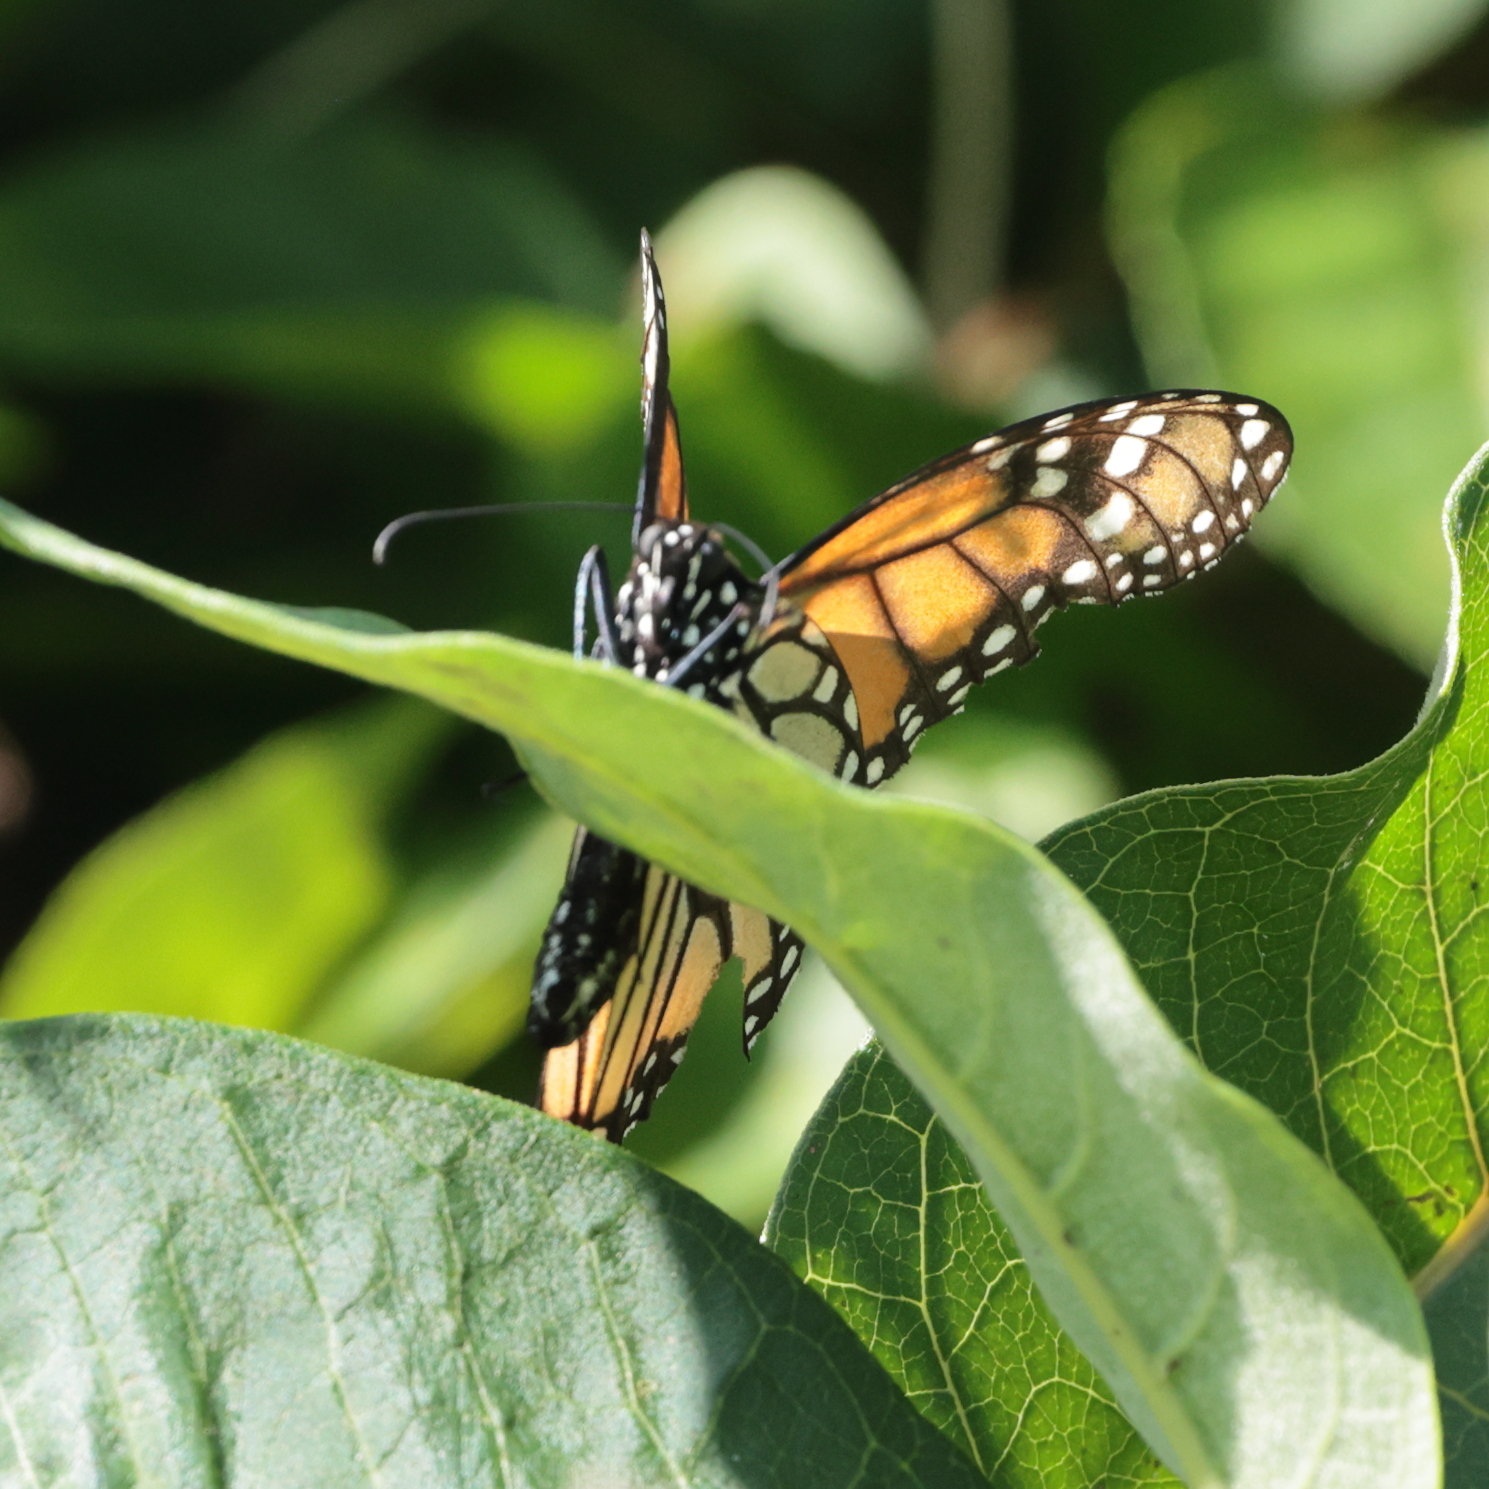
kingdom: Animalia
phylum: Arthropoda
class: Insecta
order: Lepidoptera
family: Nymphalidae
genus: Danaus
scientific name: Danaus plexippus
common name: Monarch
